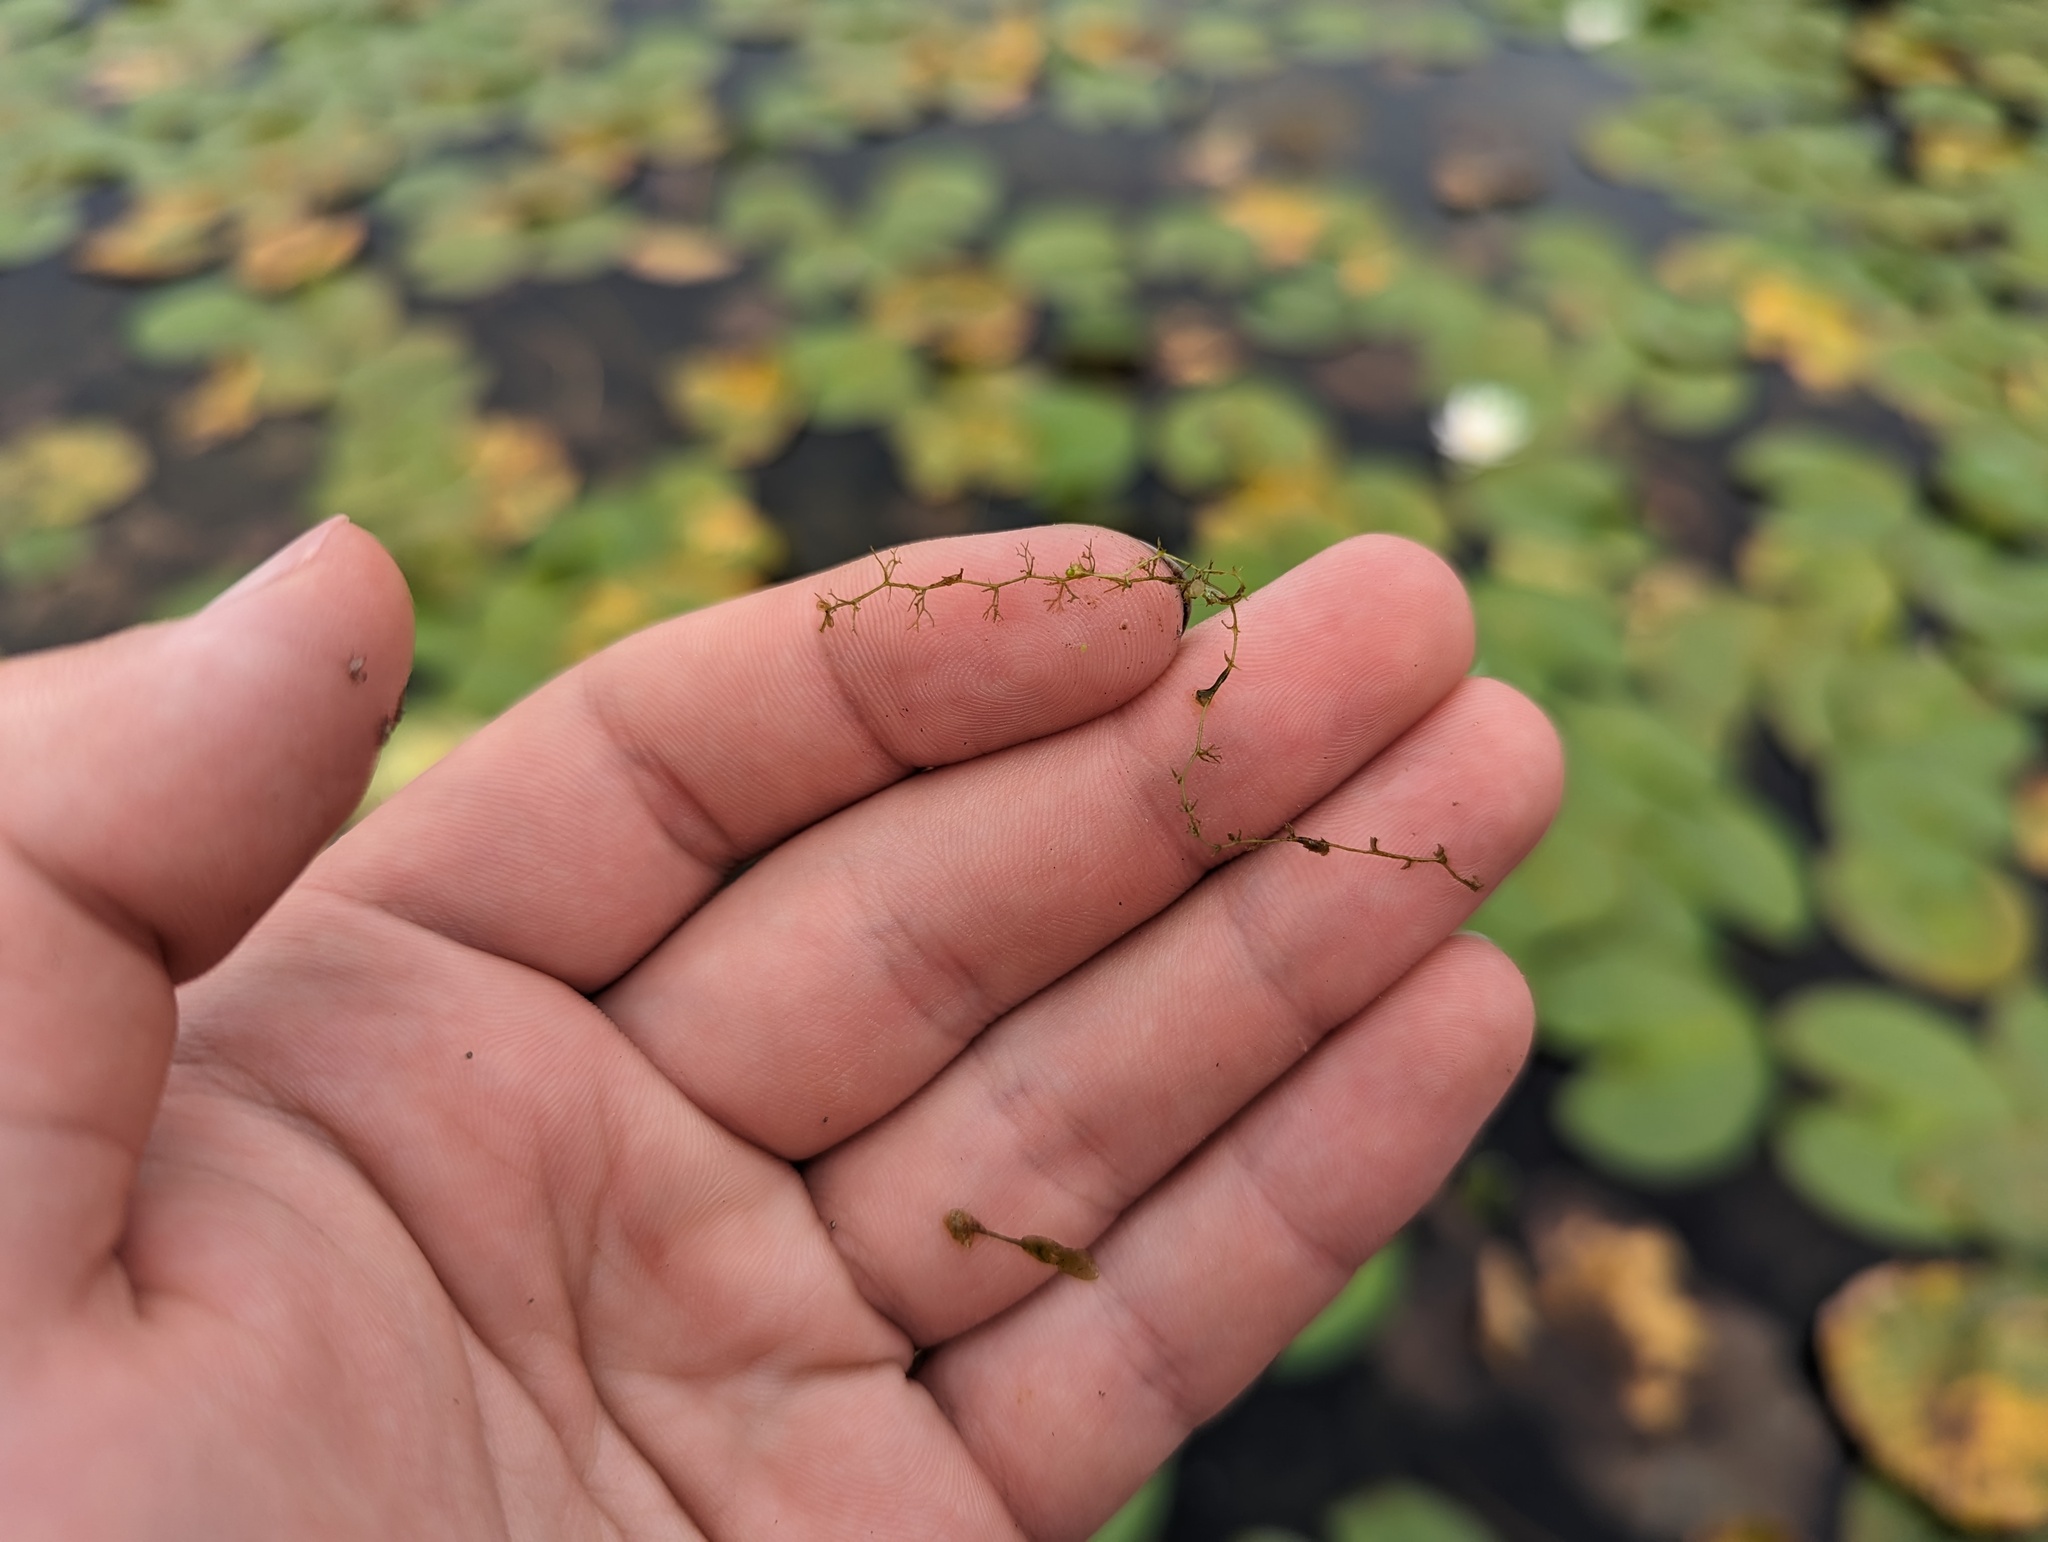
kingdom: Plantae
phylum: Tracheophyta
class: Magnoliopsida
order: Lamiales
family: Lentibulariaceae
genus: Utricularia
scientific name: Utricularia minor
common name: Lesser bladderwort
